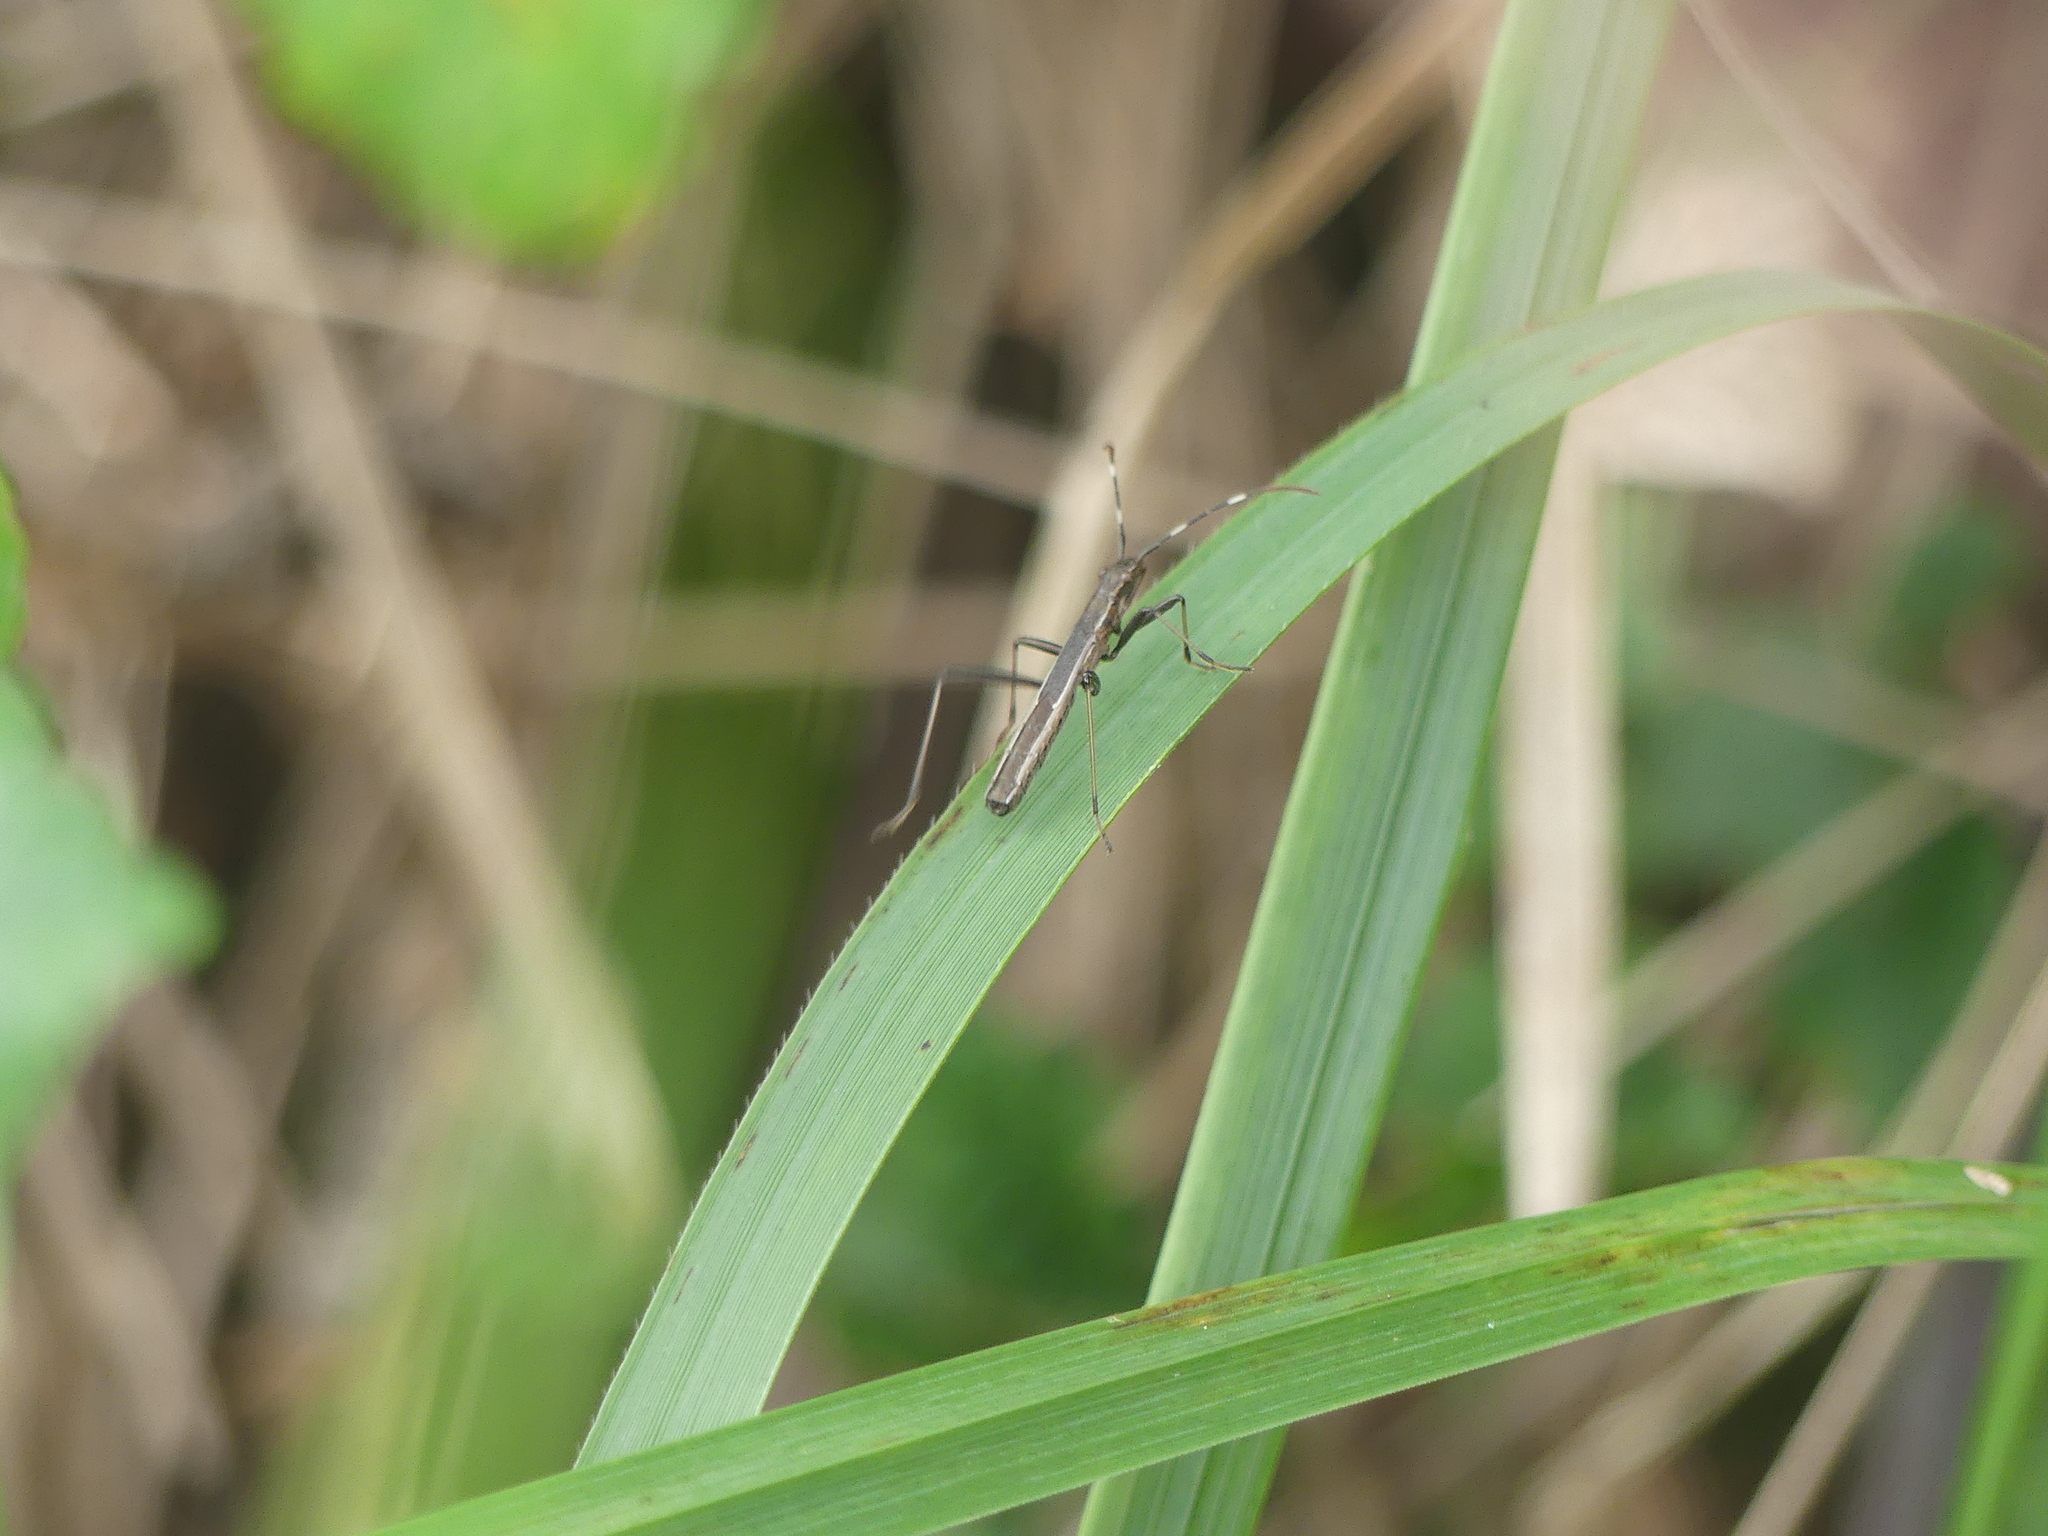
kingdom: Animalia
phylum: Arthropoda
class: Insecta
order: Hemiptera
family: Alydidae
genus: Micrelytra
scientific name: Micrelytra fossularum
